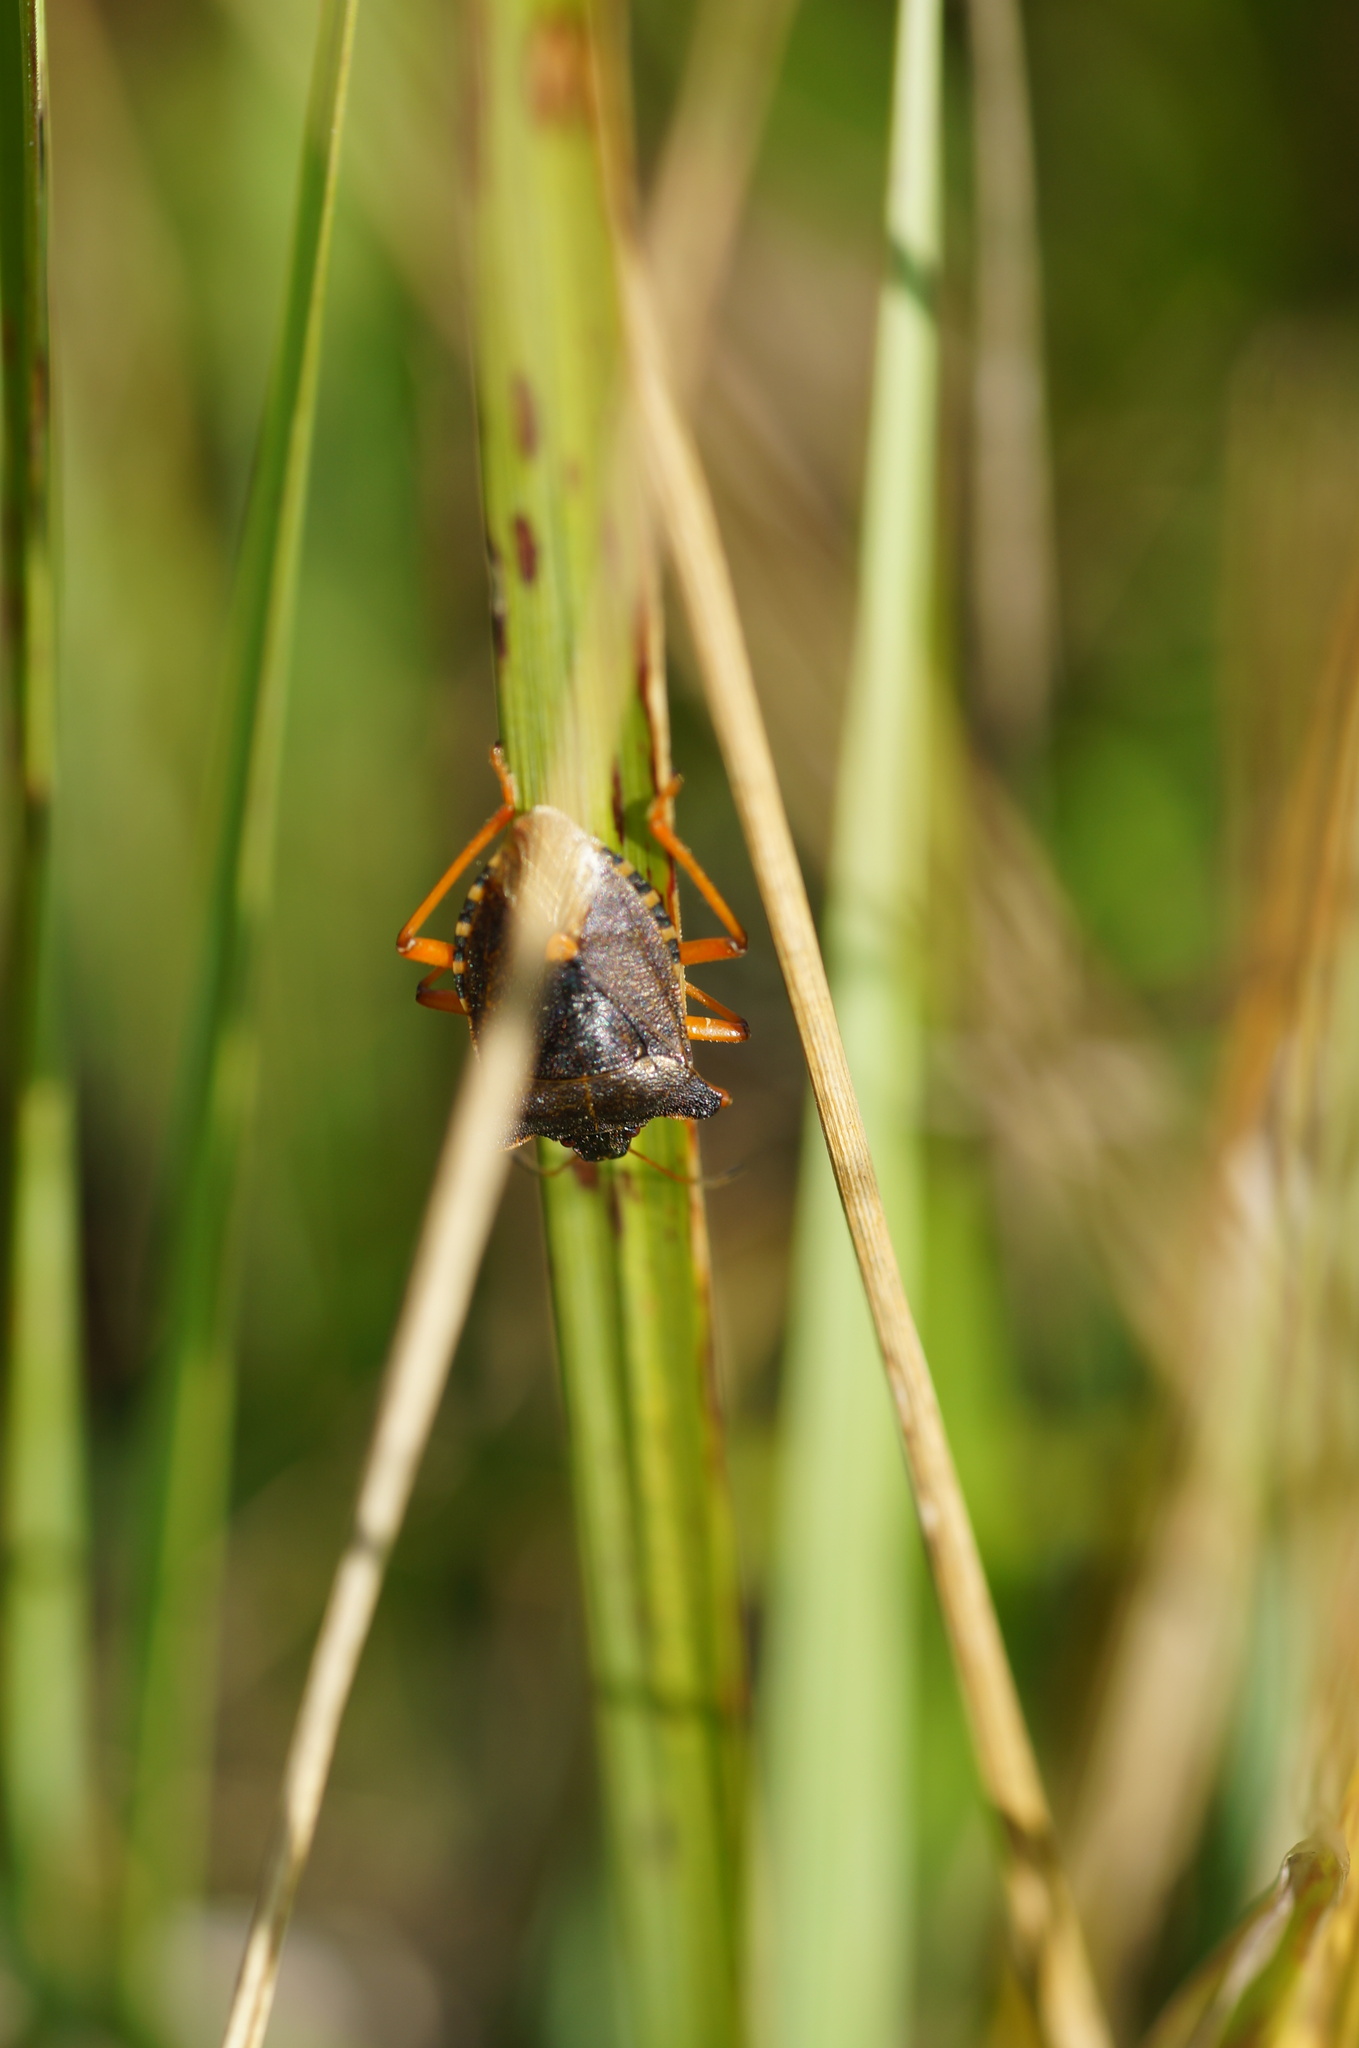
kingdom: Animalia
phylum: Arthropoda
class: Insecta
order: Hemiptera
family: Pentatomidae
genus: Pentatoma
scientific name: Pentatoma rufipes
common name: Forest bug
